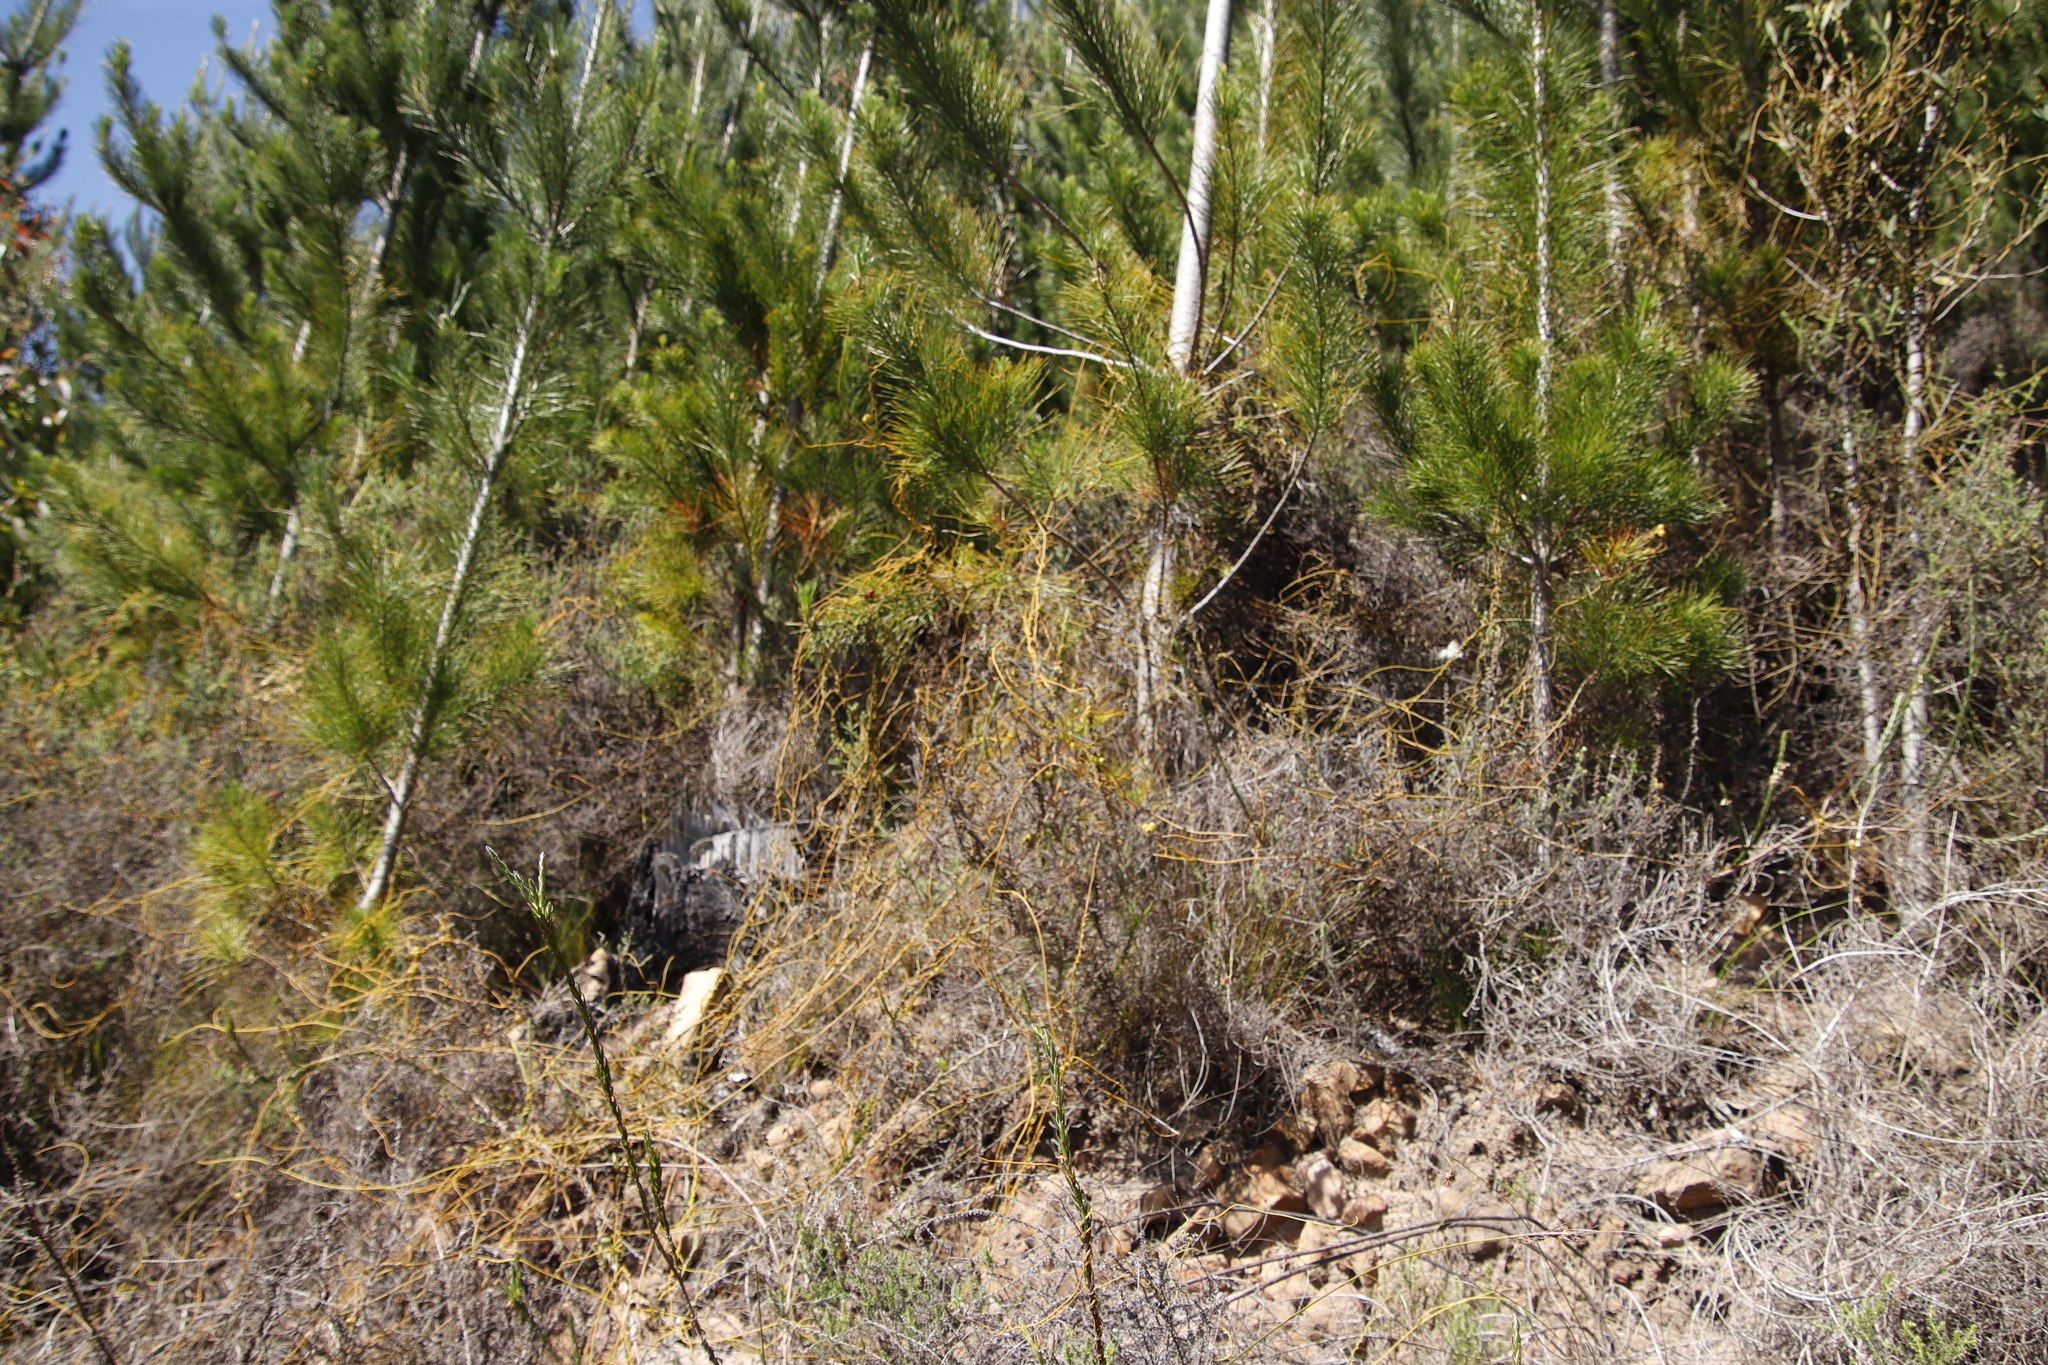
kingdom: Plantae
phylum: Tracheophyta
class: Magnoliopsida
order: Laurales
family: Lauraceae
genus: Cassytha
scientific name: Cassytha ciliolata
